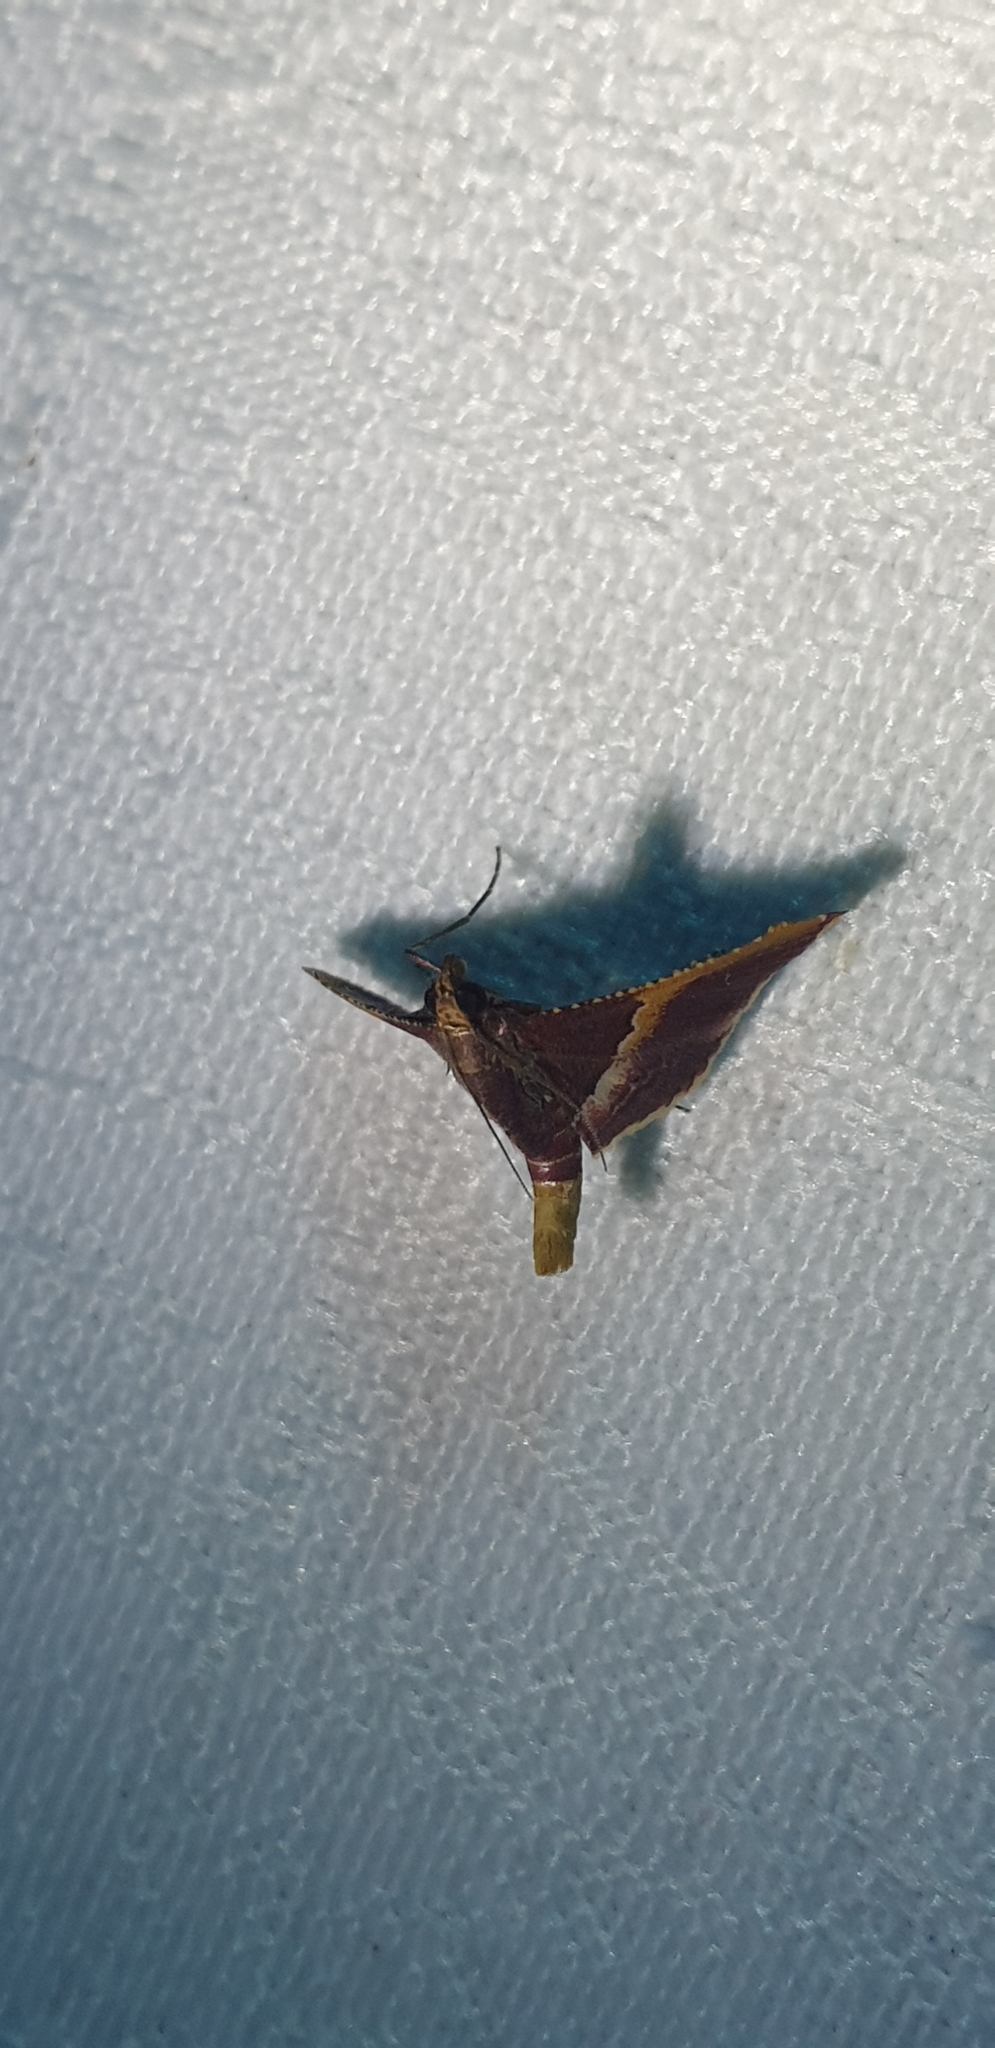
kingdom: Animalia
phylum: Arthropoda
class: Insecta
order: Lepidoptera
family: Pyralidae
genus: Endotricha
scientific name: Endotricha mesenterialis
